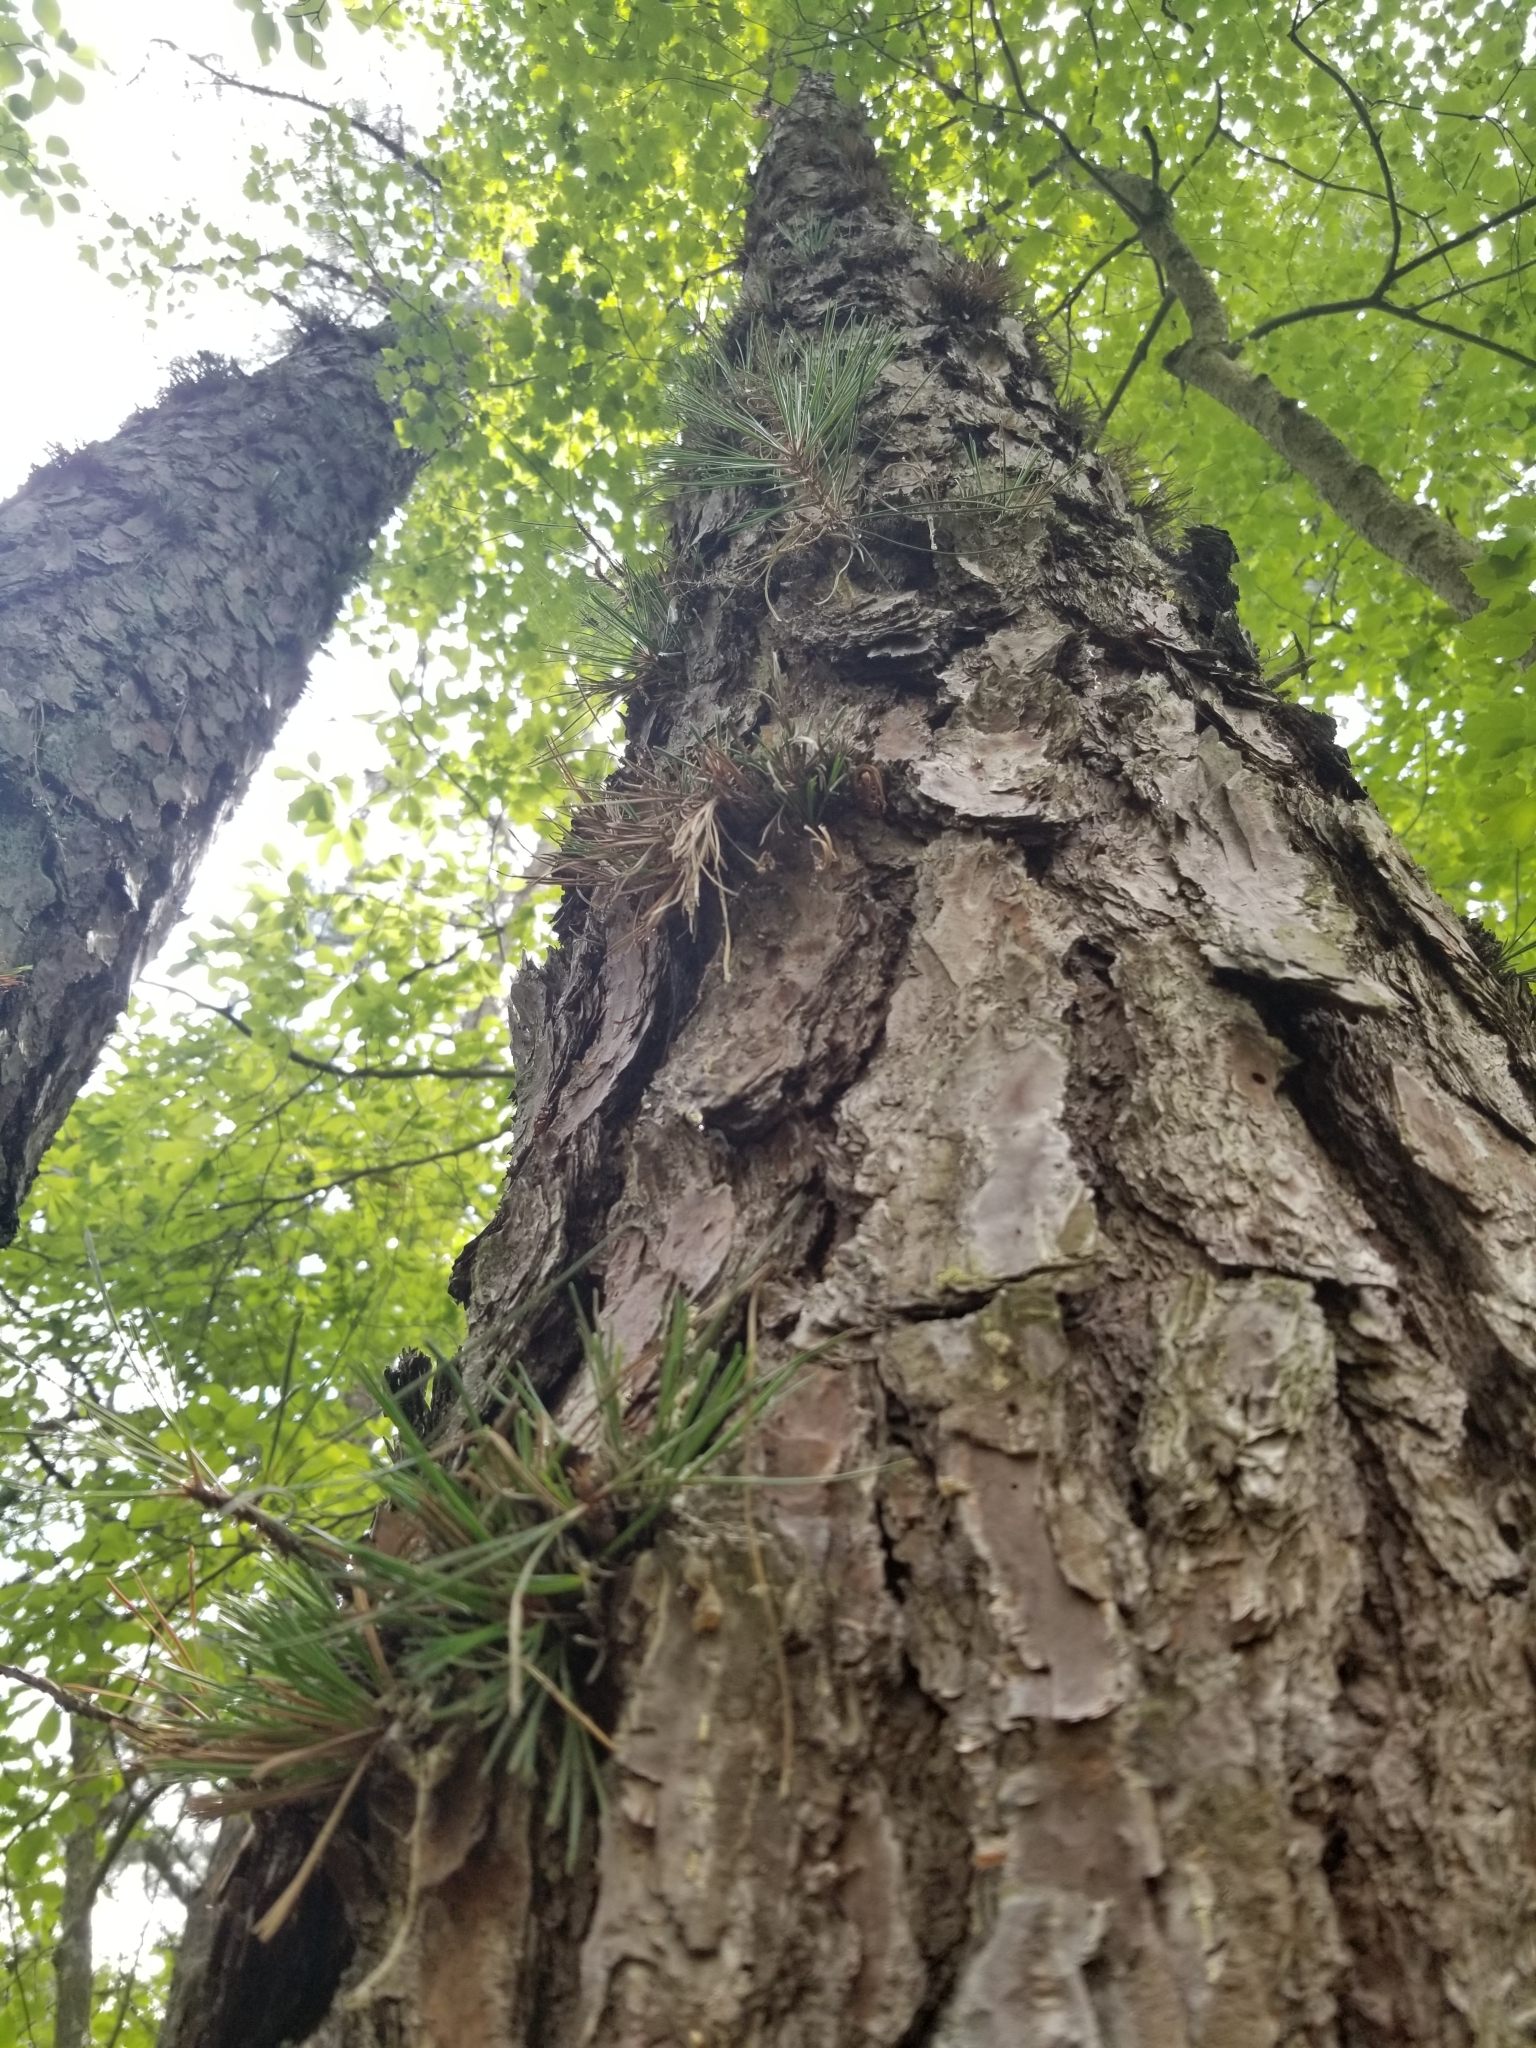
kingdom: Plantae
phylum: Tracheophyta
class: Pinopsida
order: Pinales
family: Pinaceae
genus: Pinus
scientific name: Pinus rigida
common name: Pitch pine
